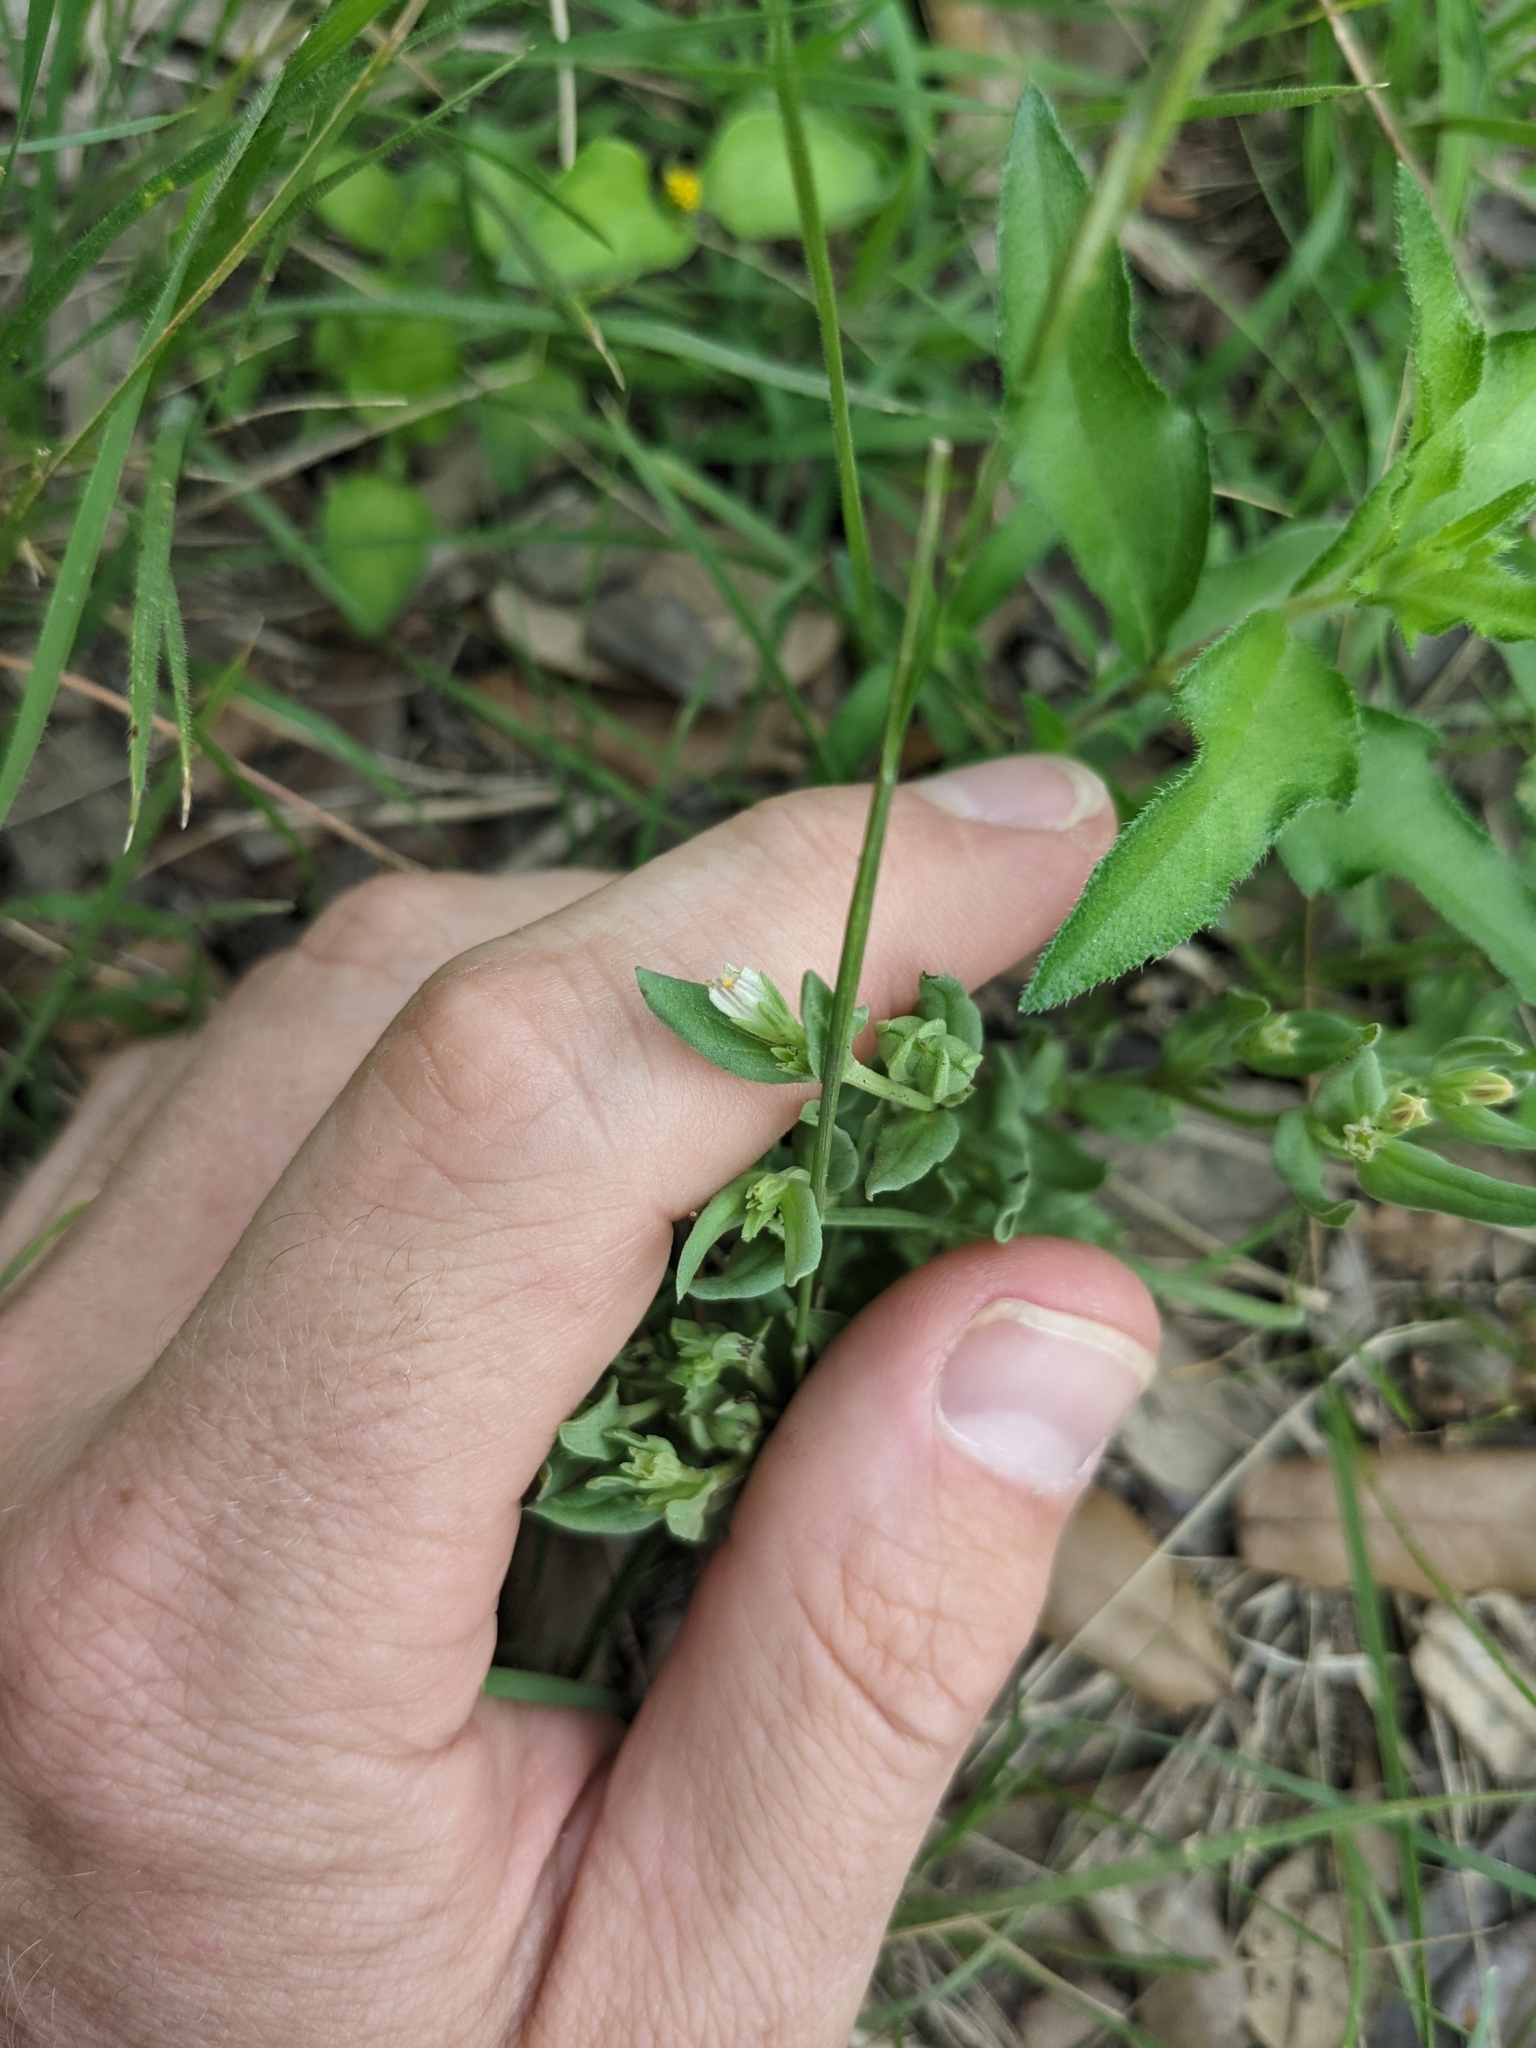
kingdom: Plantae
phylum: Tracheophyta
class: Magnoliopsida
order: Gentianales
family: Loganiaceae
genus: Spigelia
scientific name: Spigelia hedyotidea
